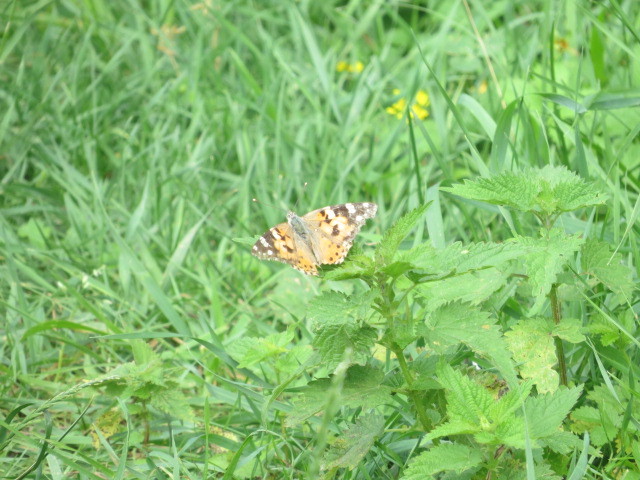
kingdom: Animalia
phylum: Arthropoda
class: Insecta
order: Lepidoptera
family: Nymphalidae
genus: Vanessa
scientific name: Vanessa cardui
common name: Painted lady
